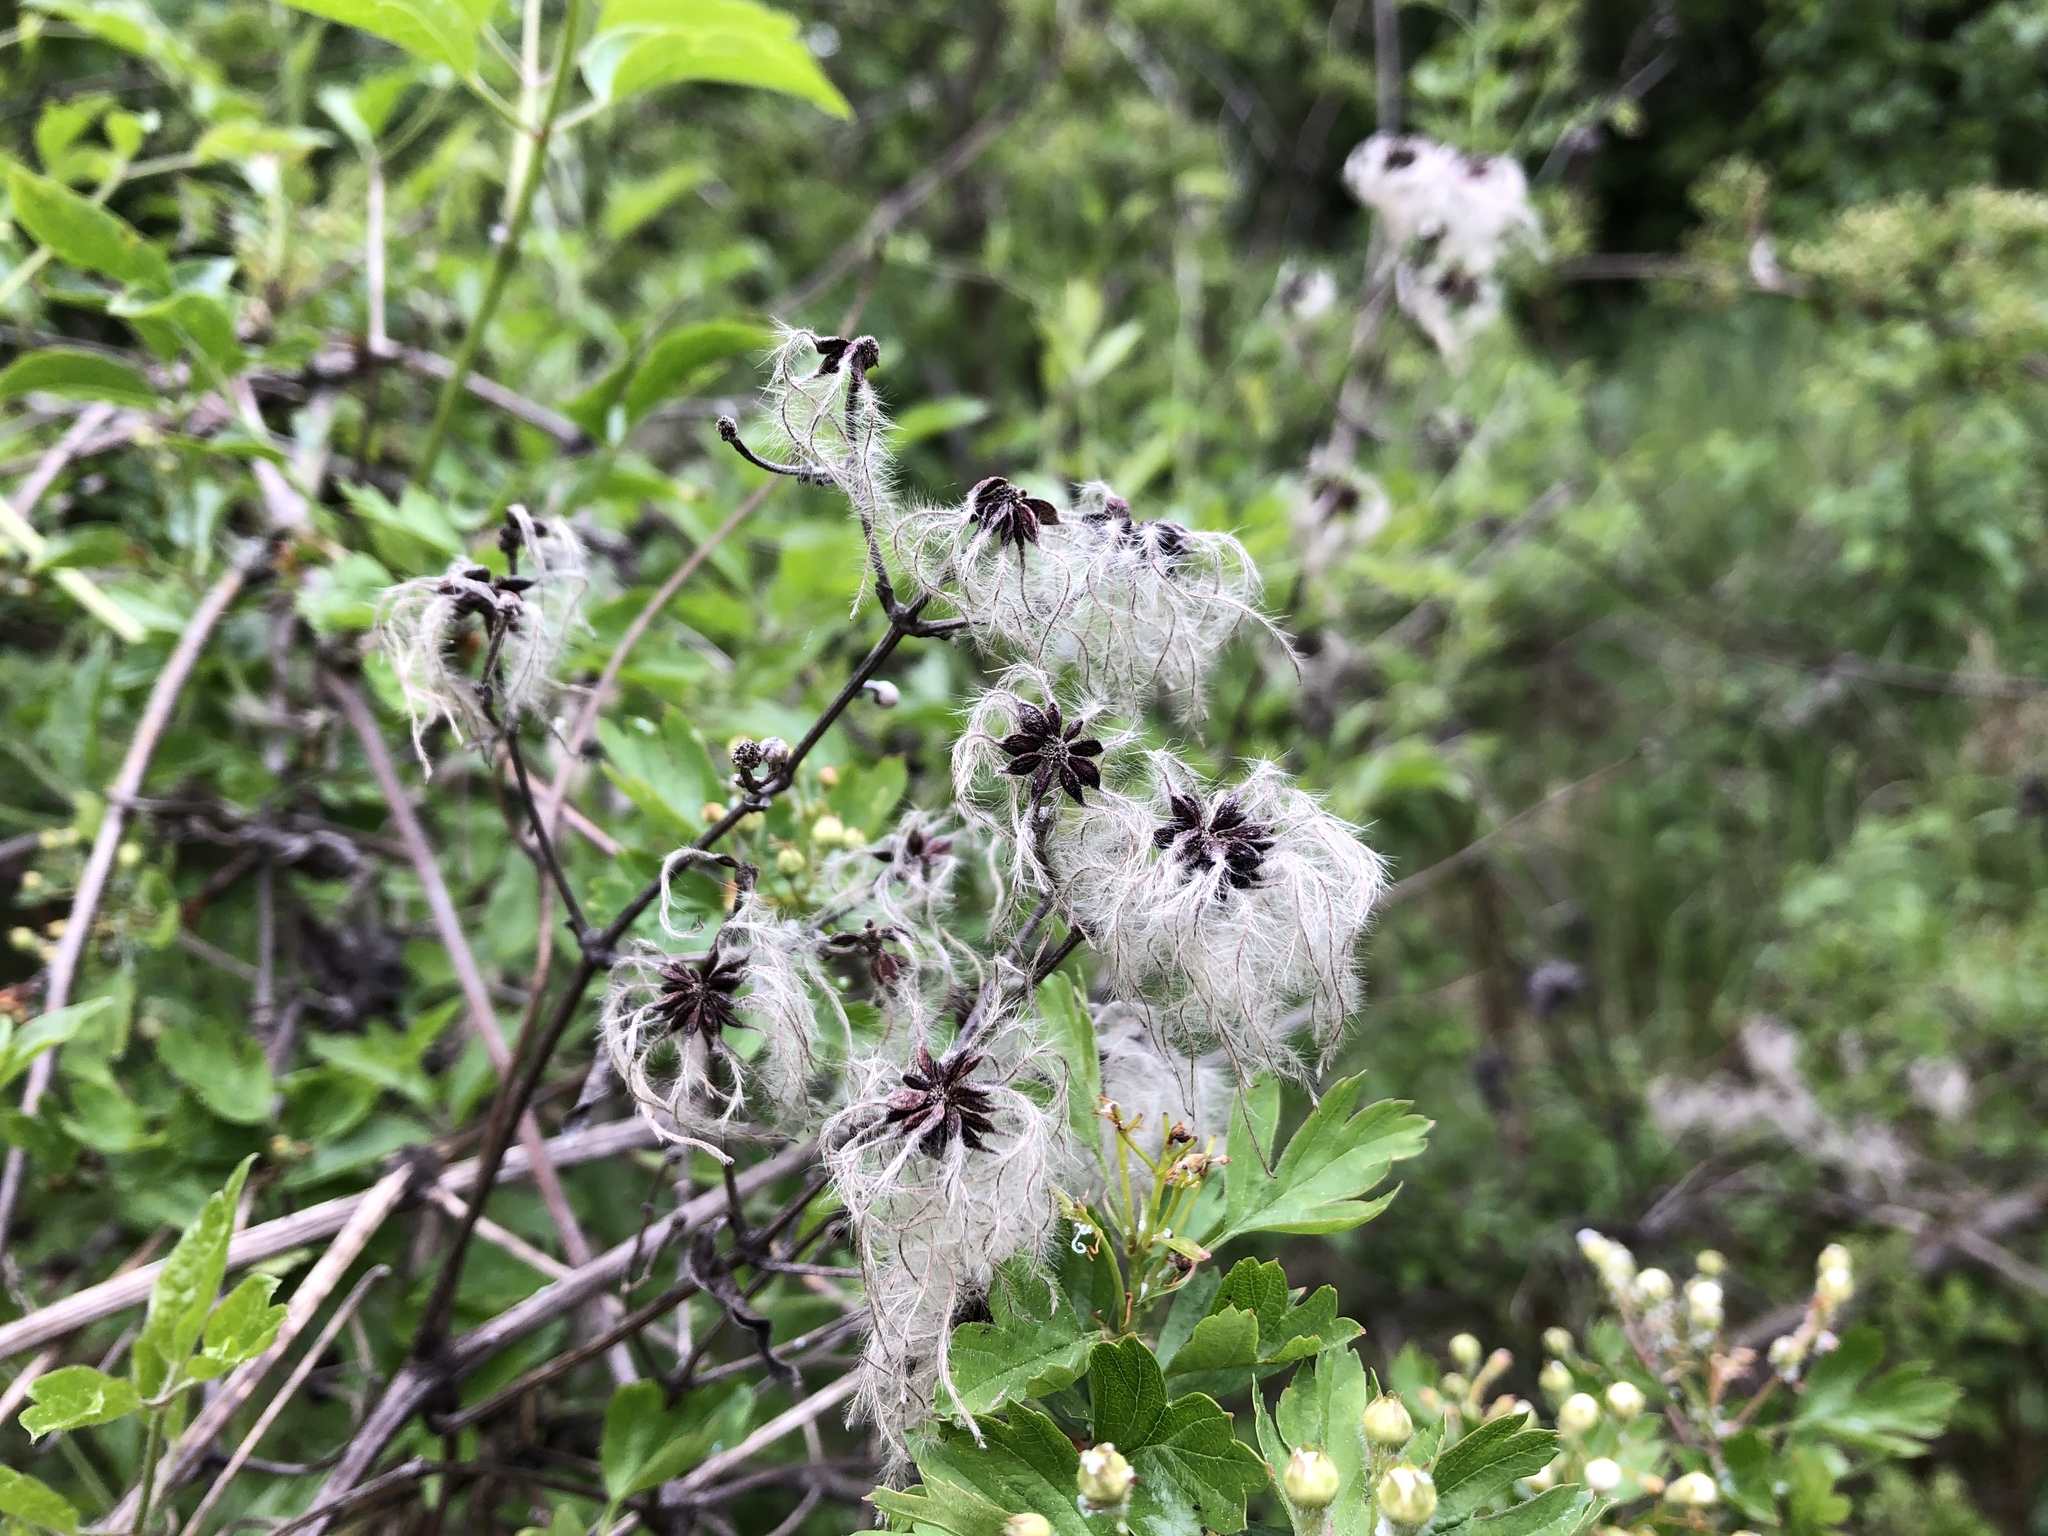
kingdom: Plantae
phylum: Tracheophyta
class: Magnoliopsida
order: Ranunculales
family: Ranunculaceae
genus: Clematis
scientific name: Clematis vitalba
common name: Evergreen clematis
